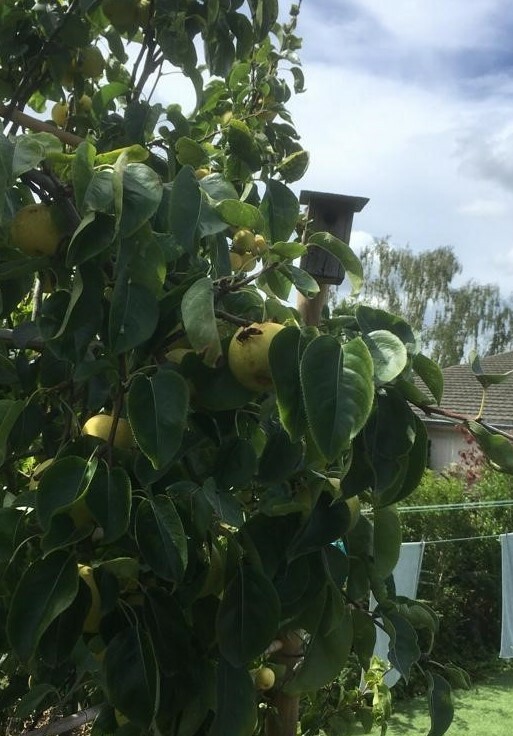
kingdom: Animalia
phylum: Arthropoda
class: Insecta
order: Hymenoptera
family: Vespidae
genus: Vespa
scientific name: Vespa velutina
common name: Asian hornet
